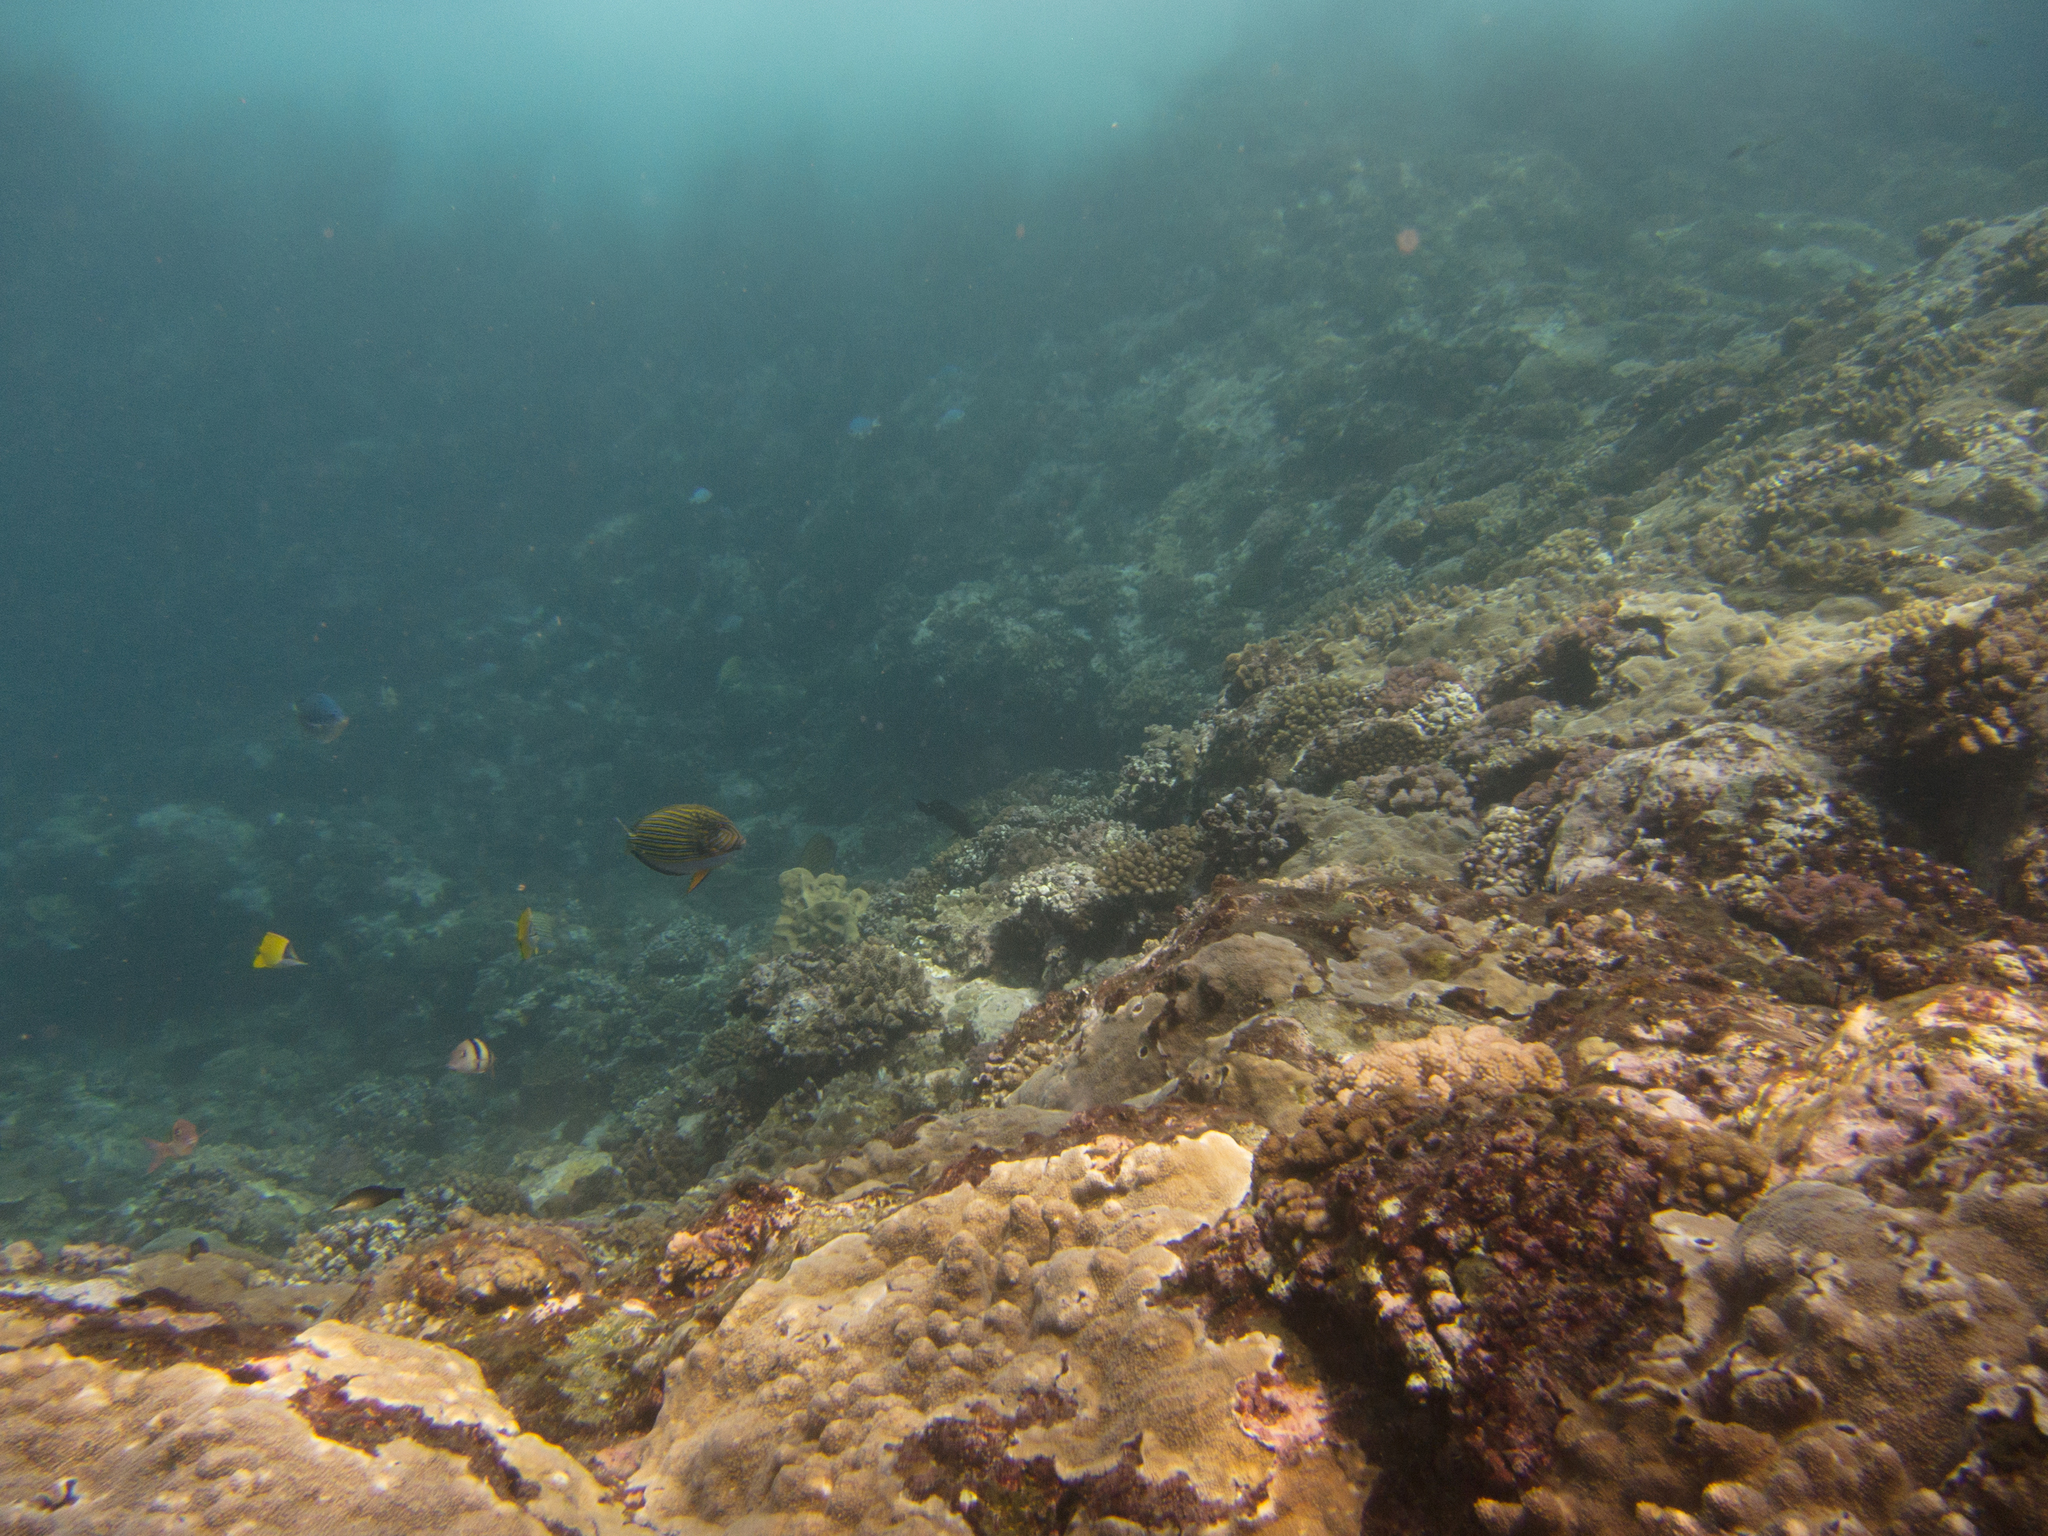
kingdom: Animalia
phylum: Chordata
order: Perciformes
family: Chaetodontidae
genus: Forcipiger
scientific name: Forcipiger flavissimus
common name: Forcepsfish
